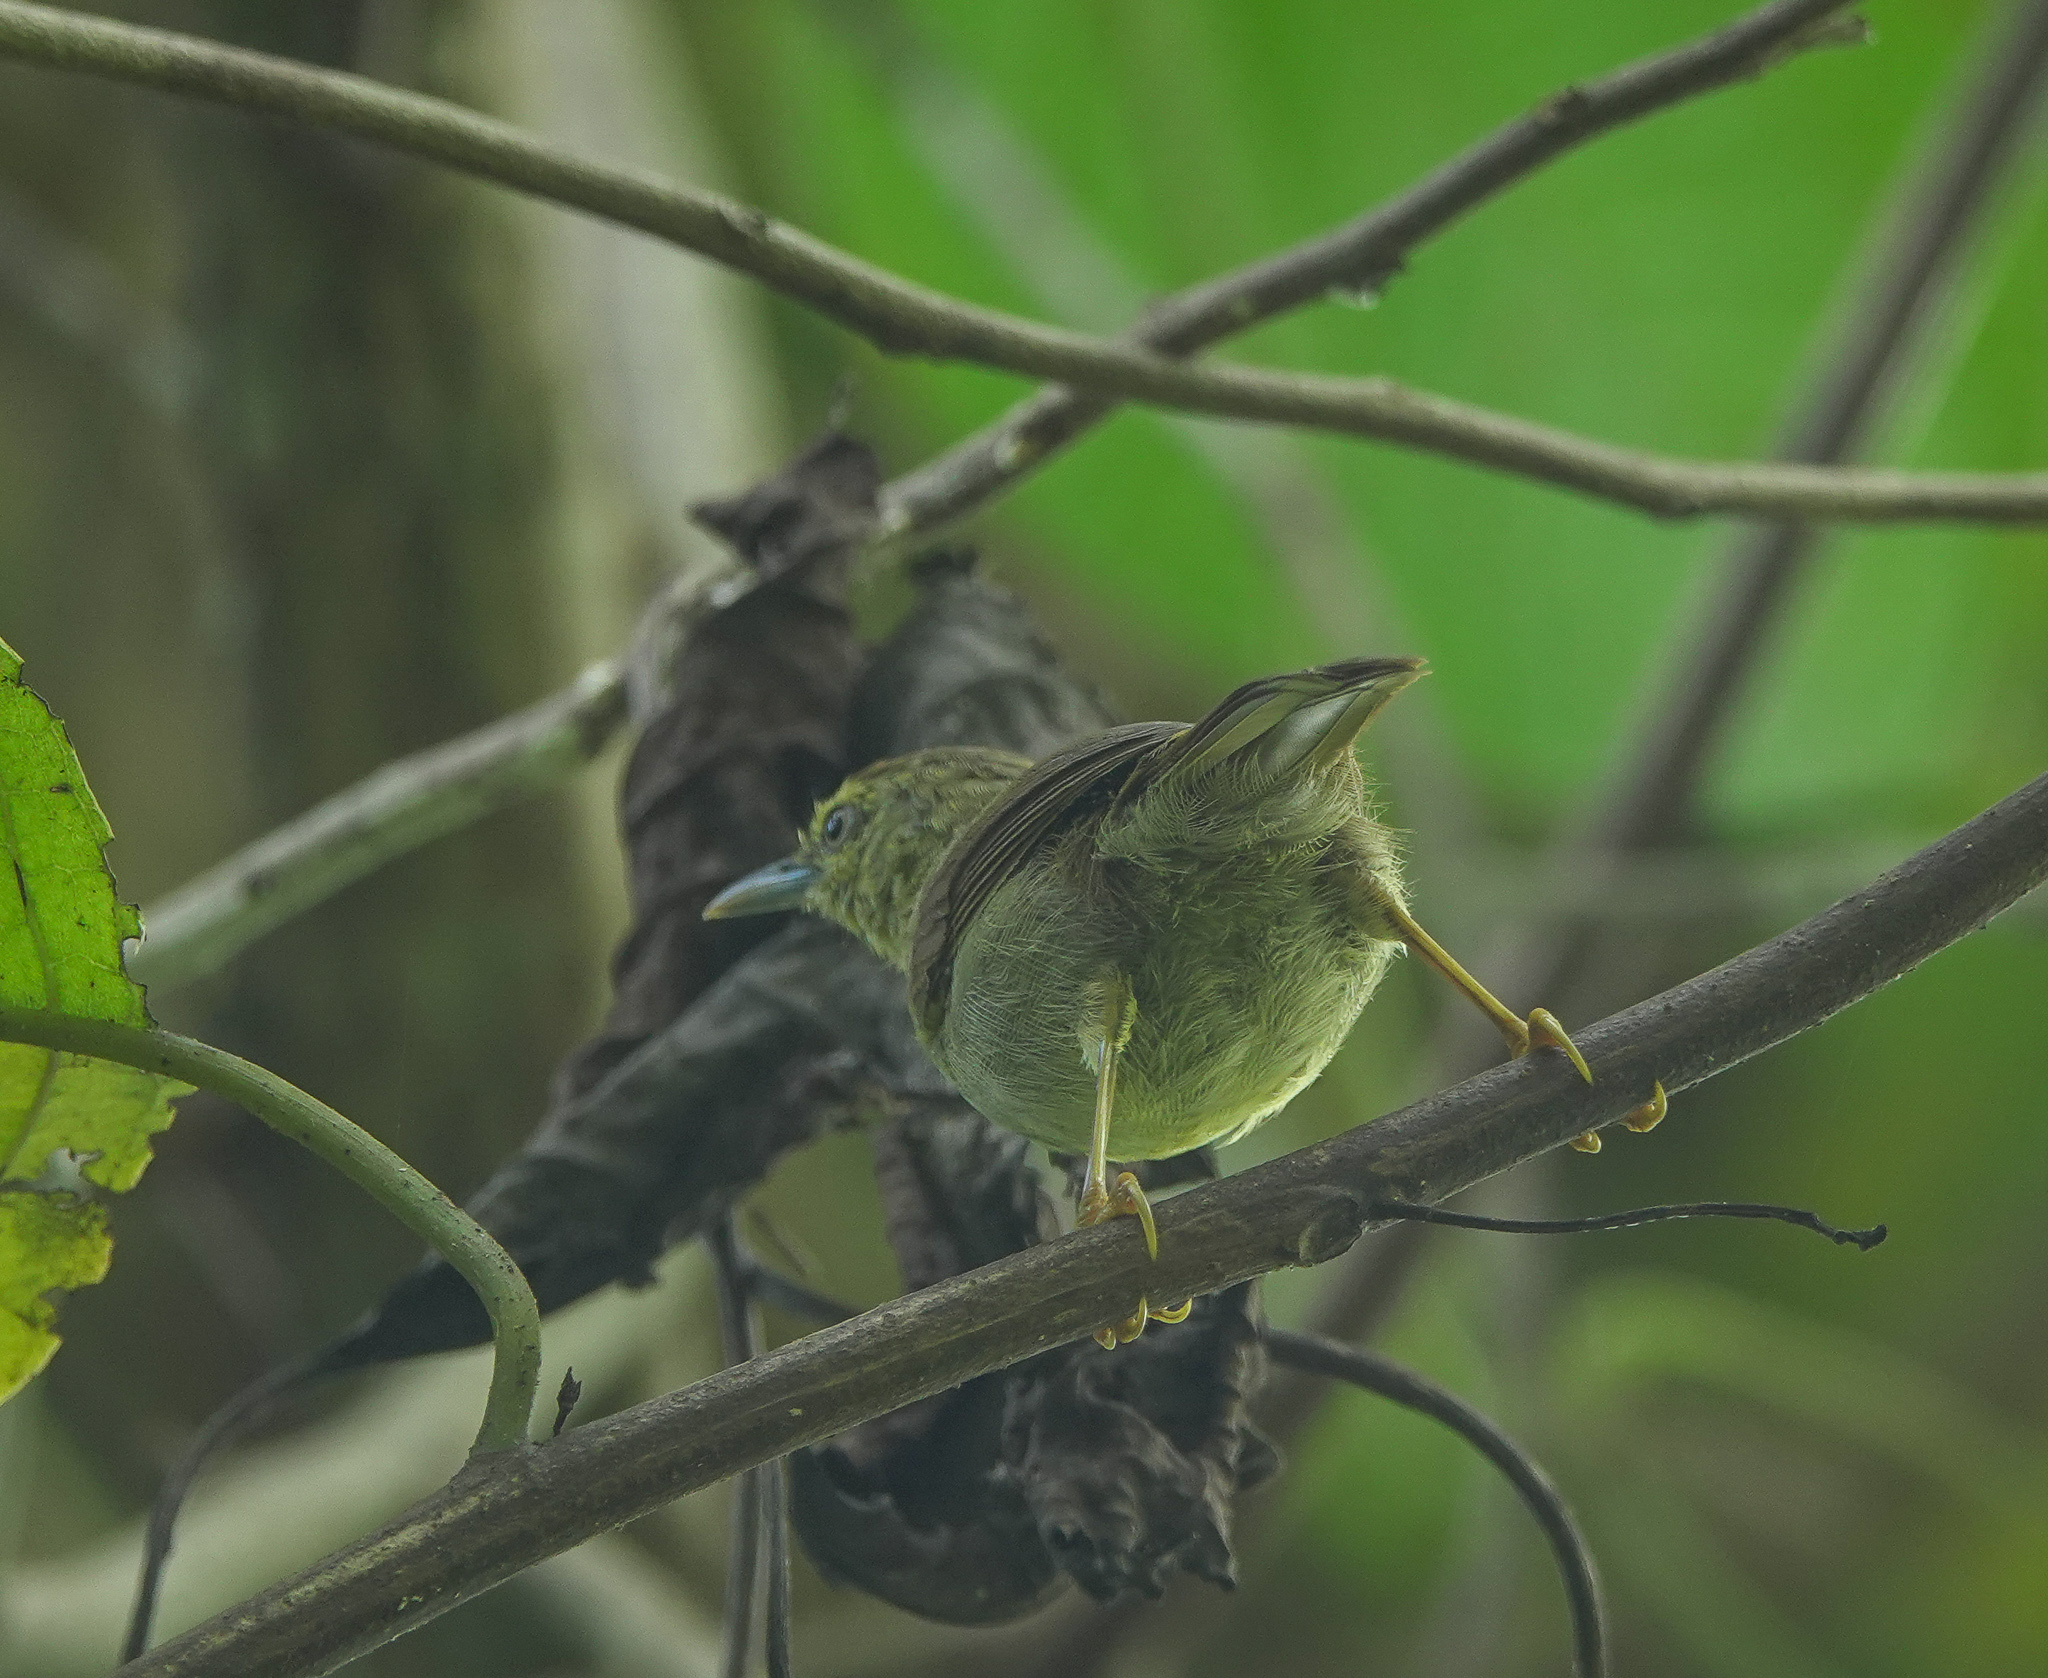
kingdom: Animalia
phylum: Chordata
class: Aves
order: Passeriformes
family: Timaliidae
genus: Macronus
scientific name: Macronus gularis
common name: Striped tit-babbler
